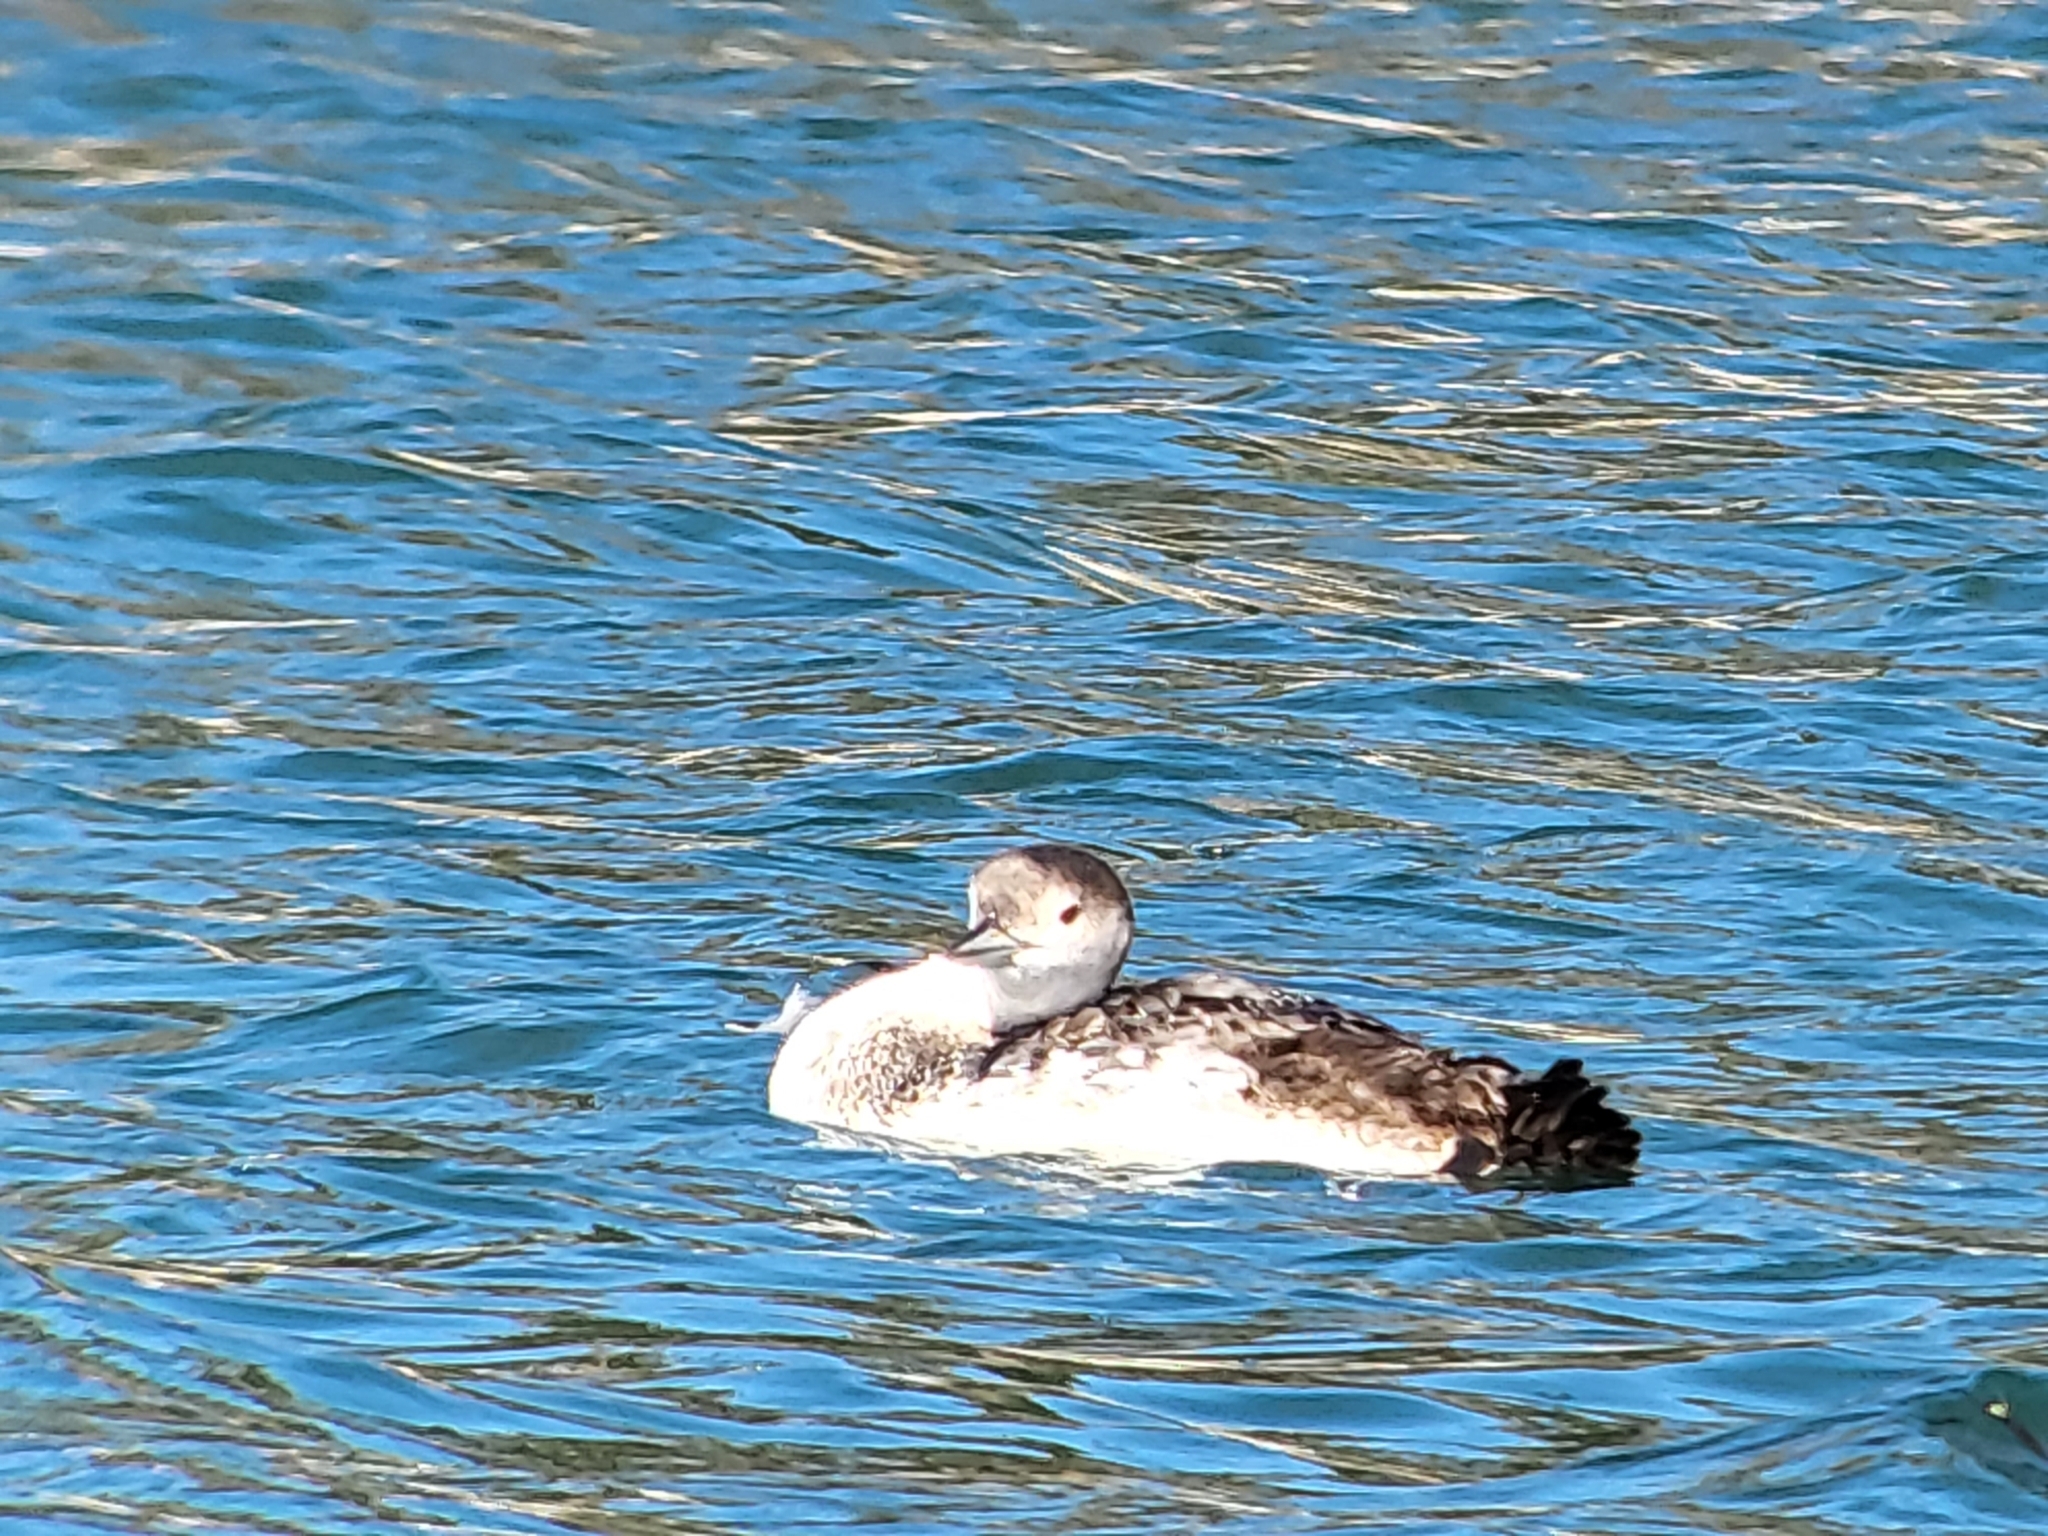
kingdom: Animalia
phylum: Chordata
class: Aves
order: Gaviiformes
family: Gaviidae
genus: Gavia
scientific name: Gavia immer
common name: Common loon
